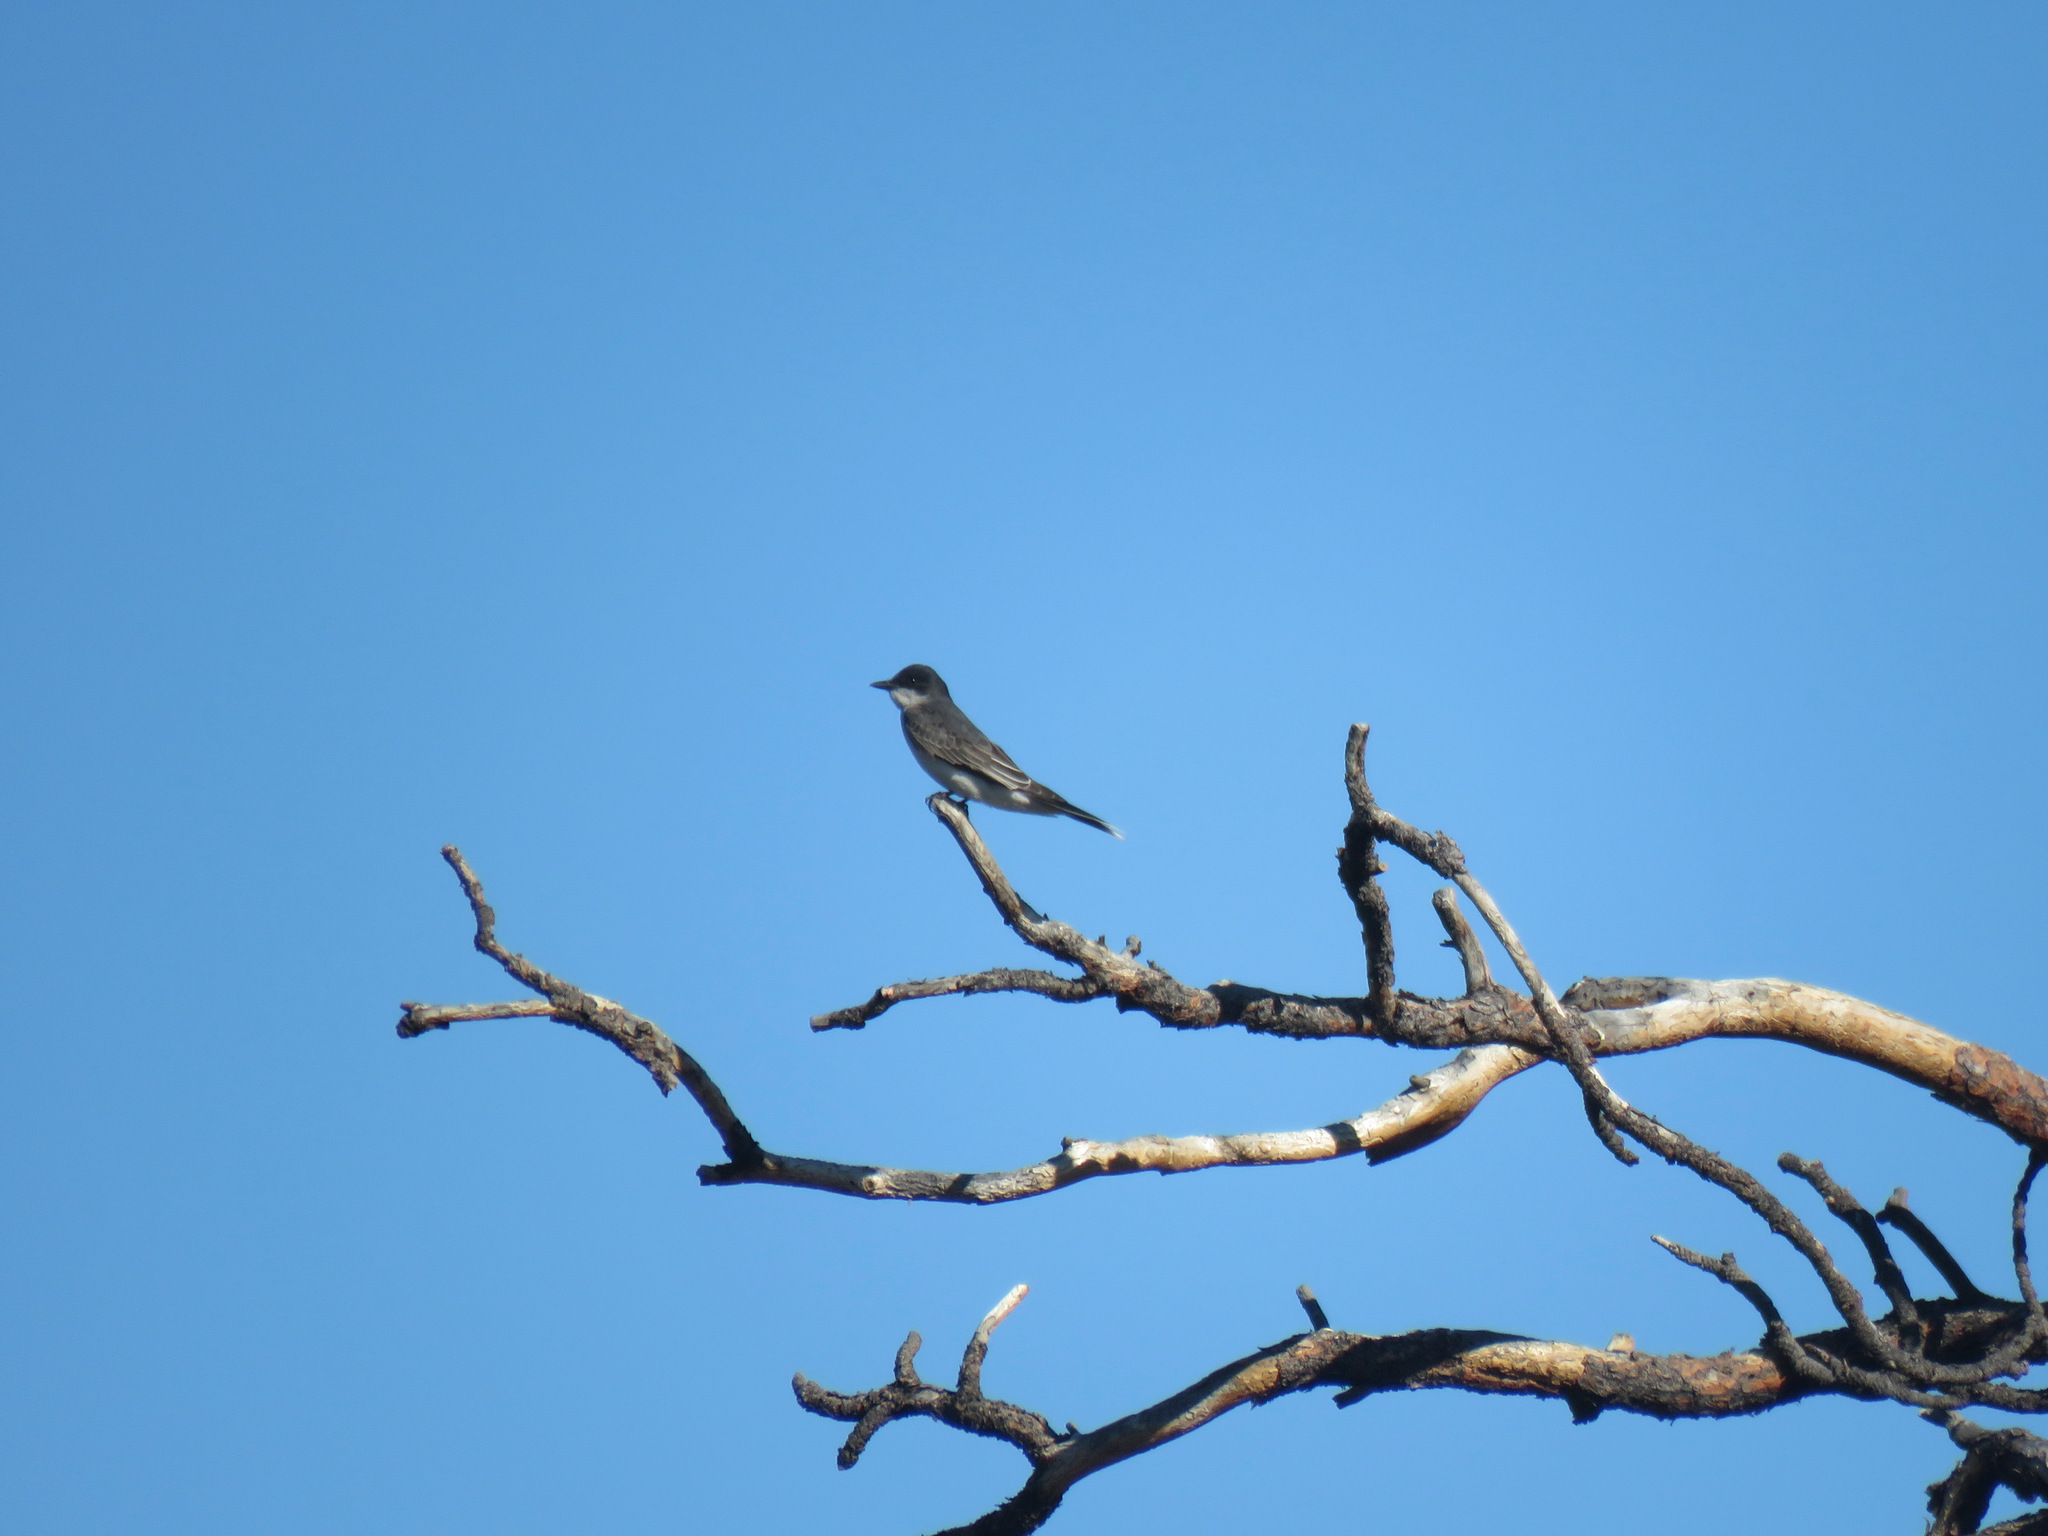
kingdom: Animalia
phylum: Chordata
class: Aves
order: Passeriformes
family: Tyrannidae
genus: Tyrannus
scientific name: Tyrannus tyrannus
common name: Eastern kingbird
